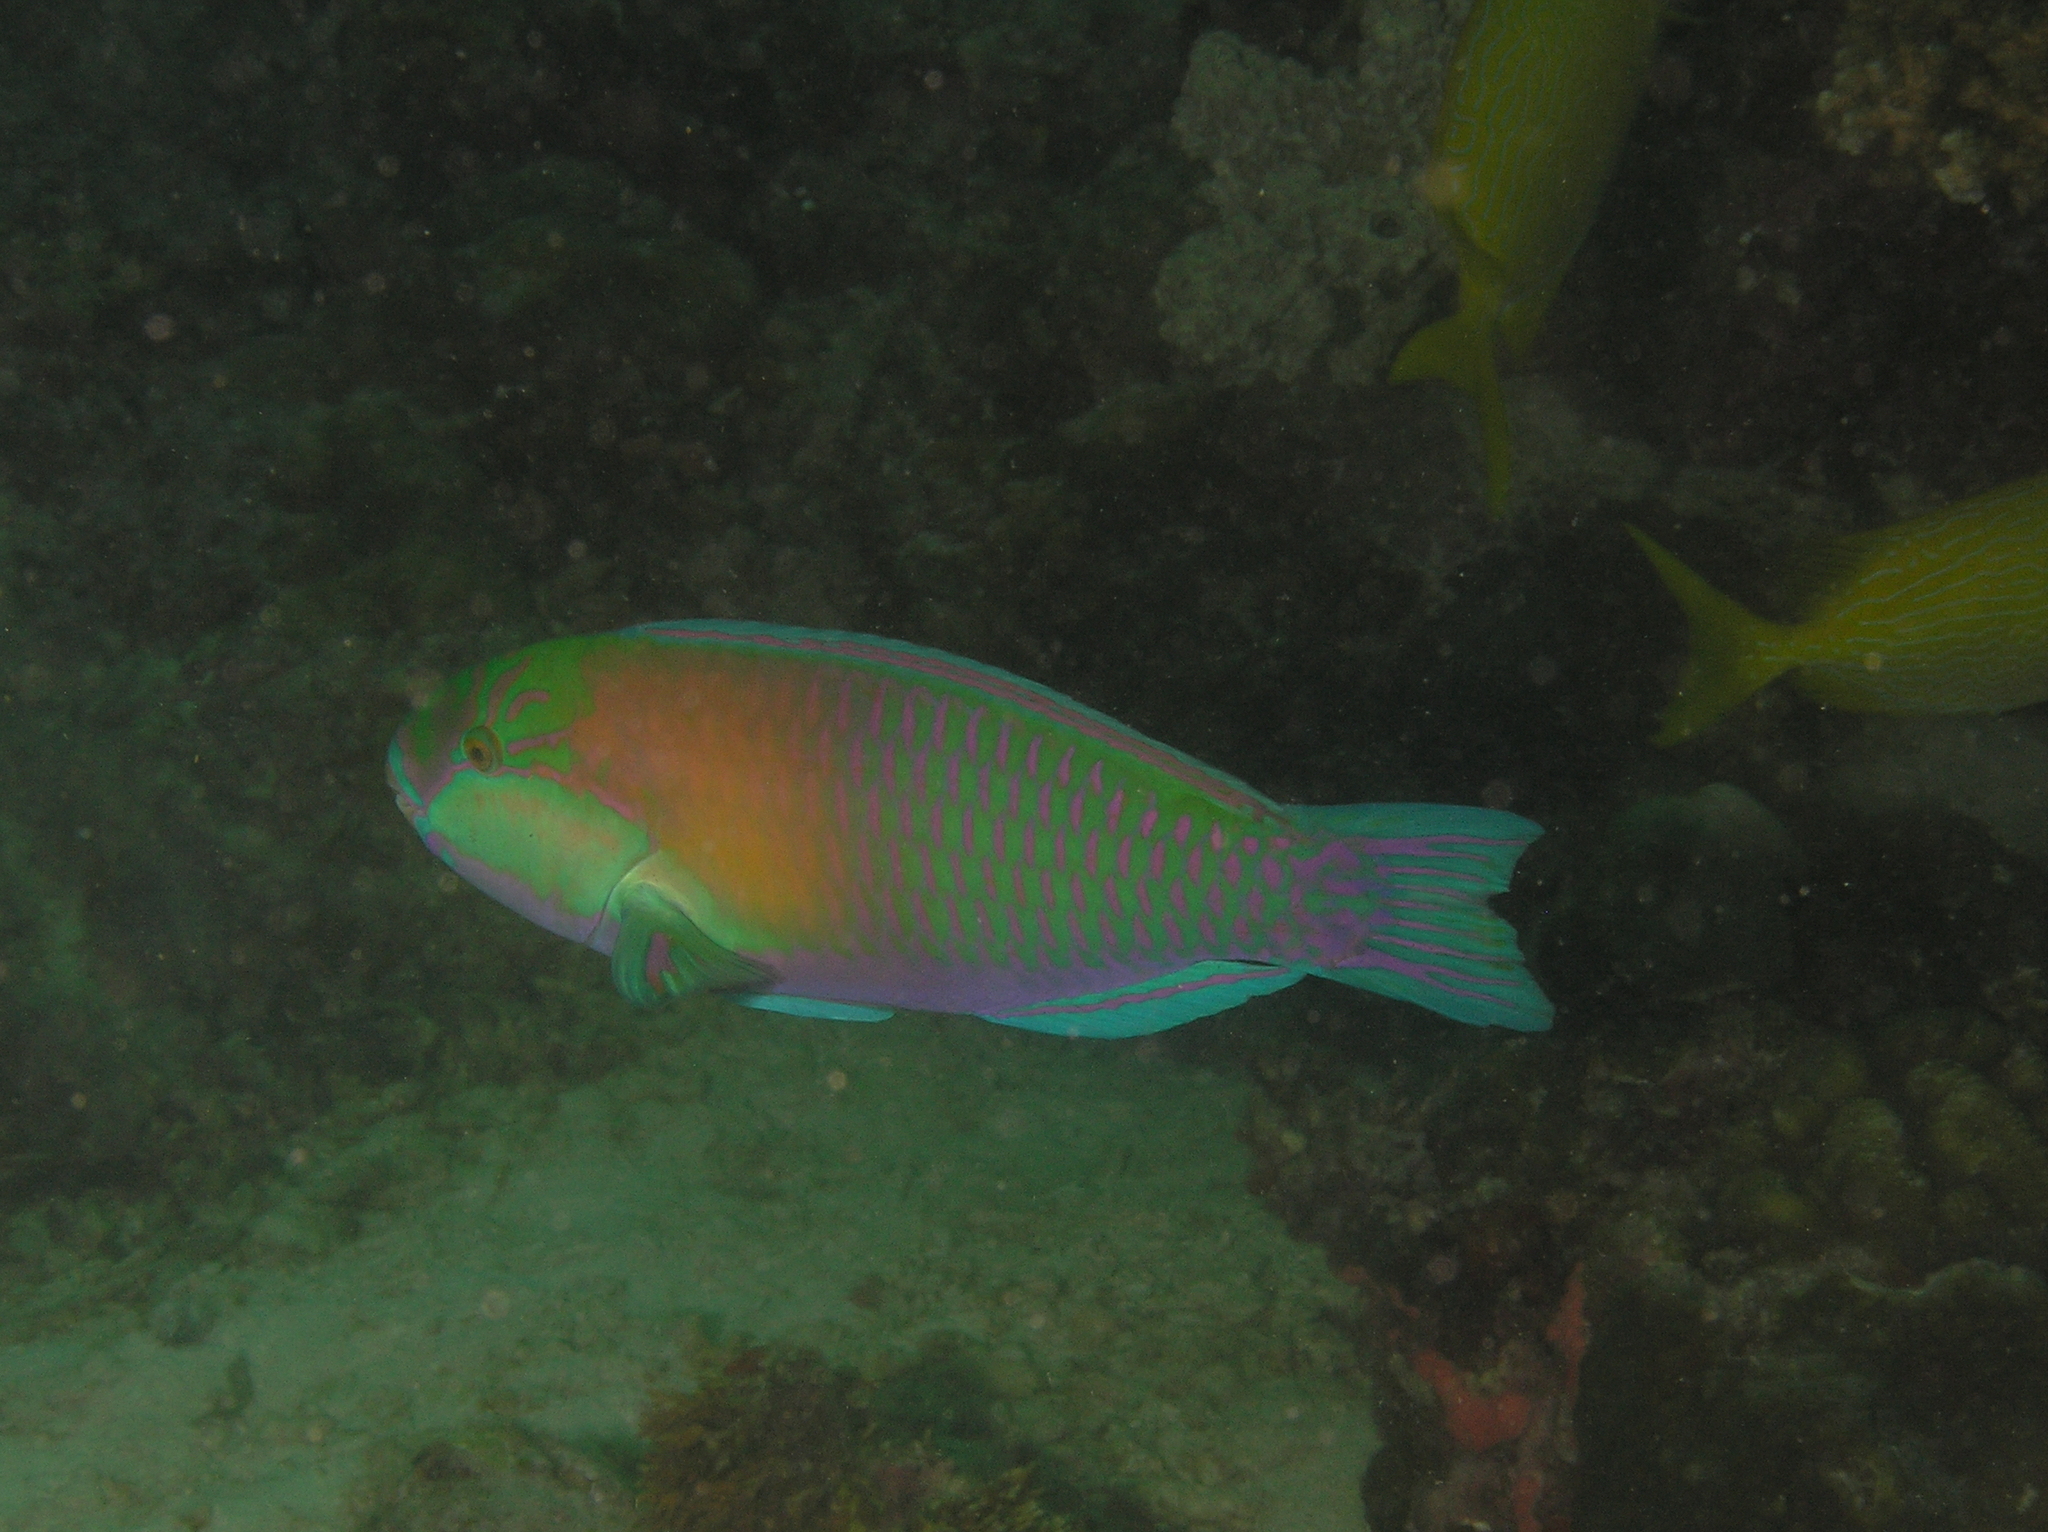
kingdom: Animalia
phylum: Chordata
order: Perciformes
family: Scaridae
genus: Chlorurus
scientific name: Chlorurus bleekeri
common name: Bleeker's parrotfish
